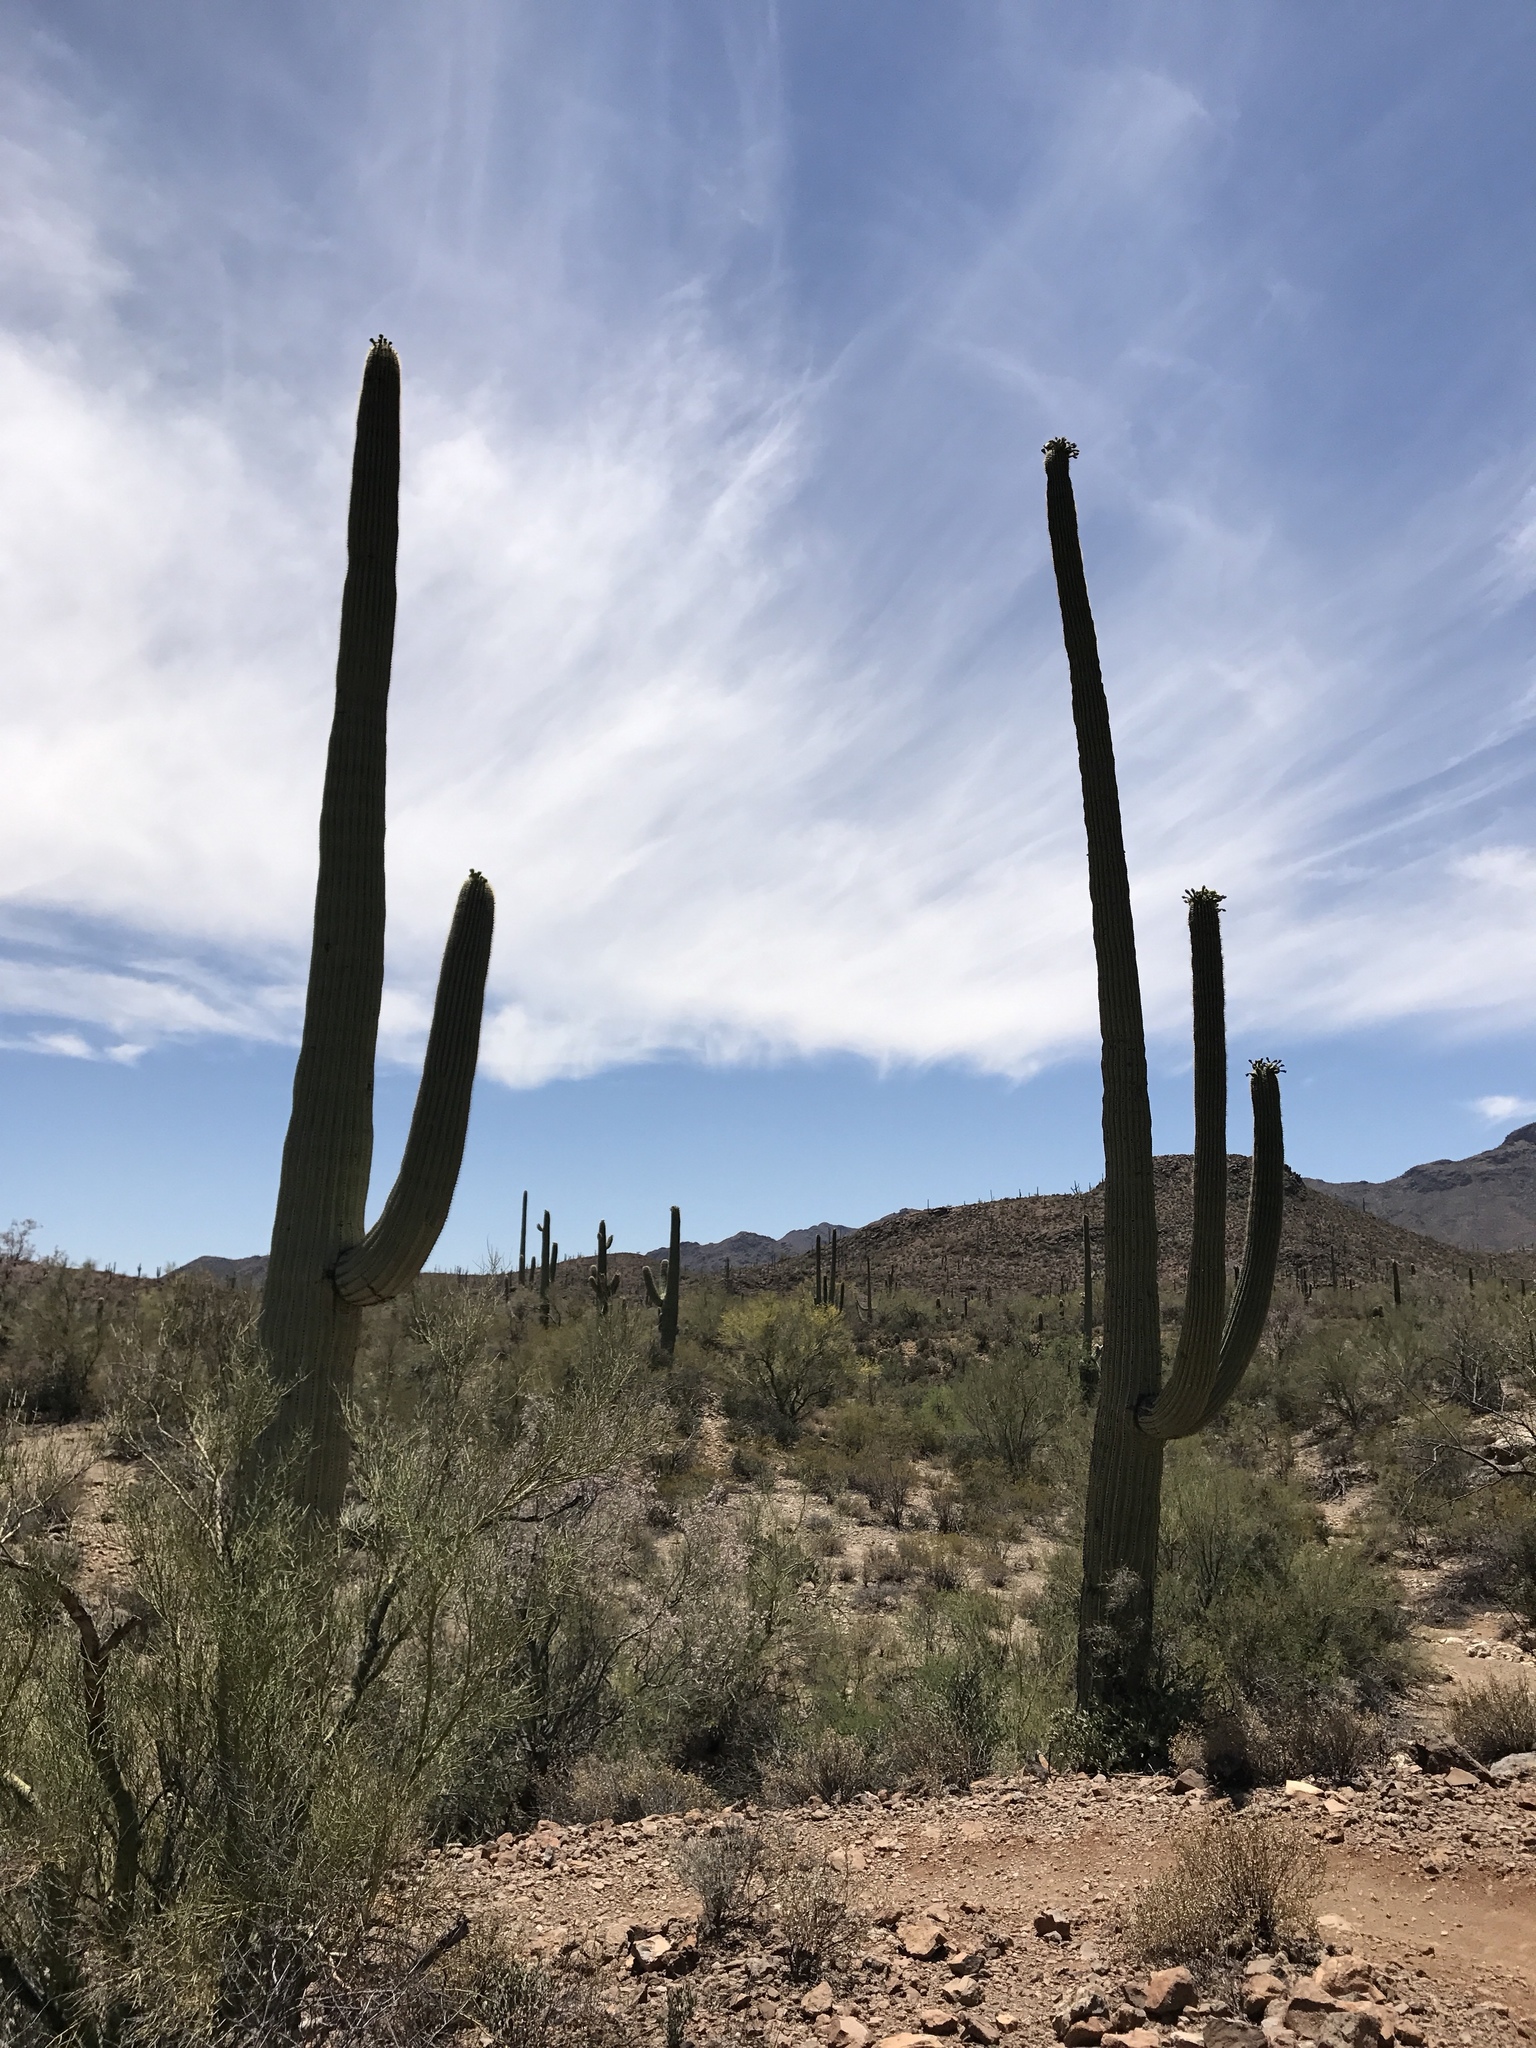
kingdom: Plantae
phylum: Tracheophyta
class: Magnoliopsida
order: Caryophyllales
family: Cactaceae
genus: Carnegiea
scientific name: Carnegiea gigantea
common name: Saguaro
